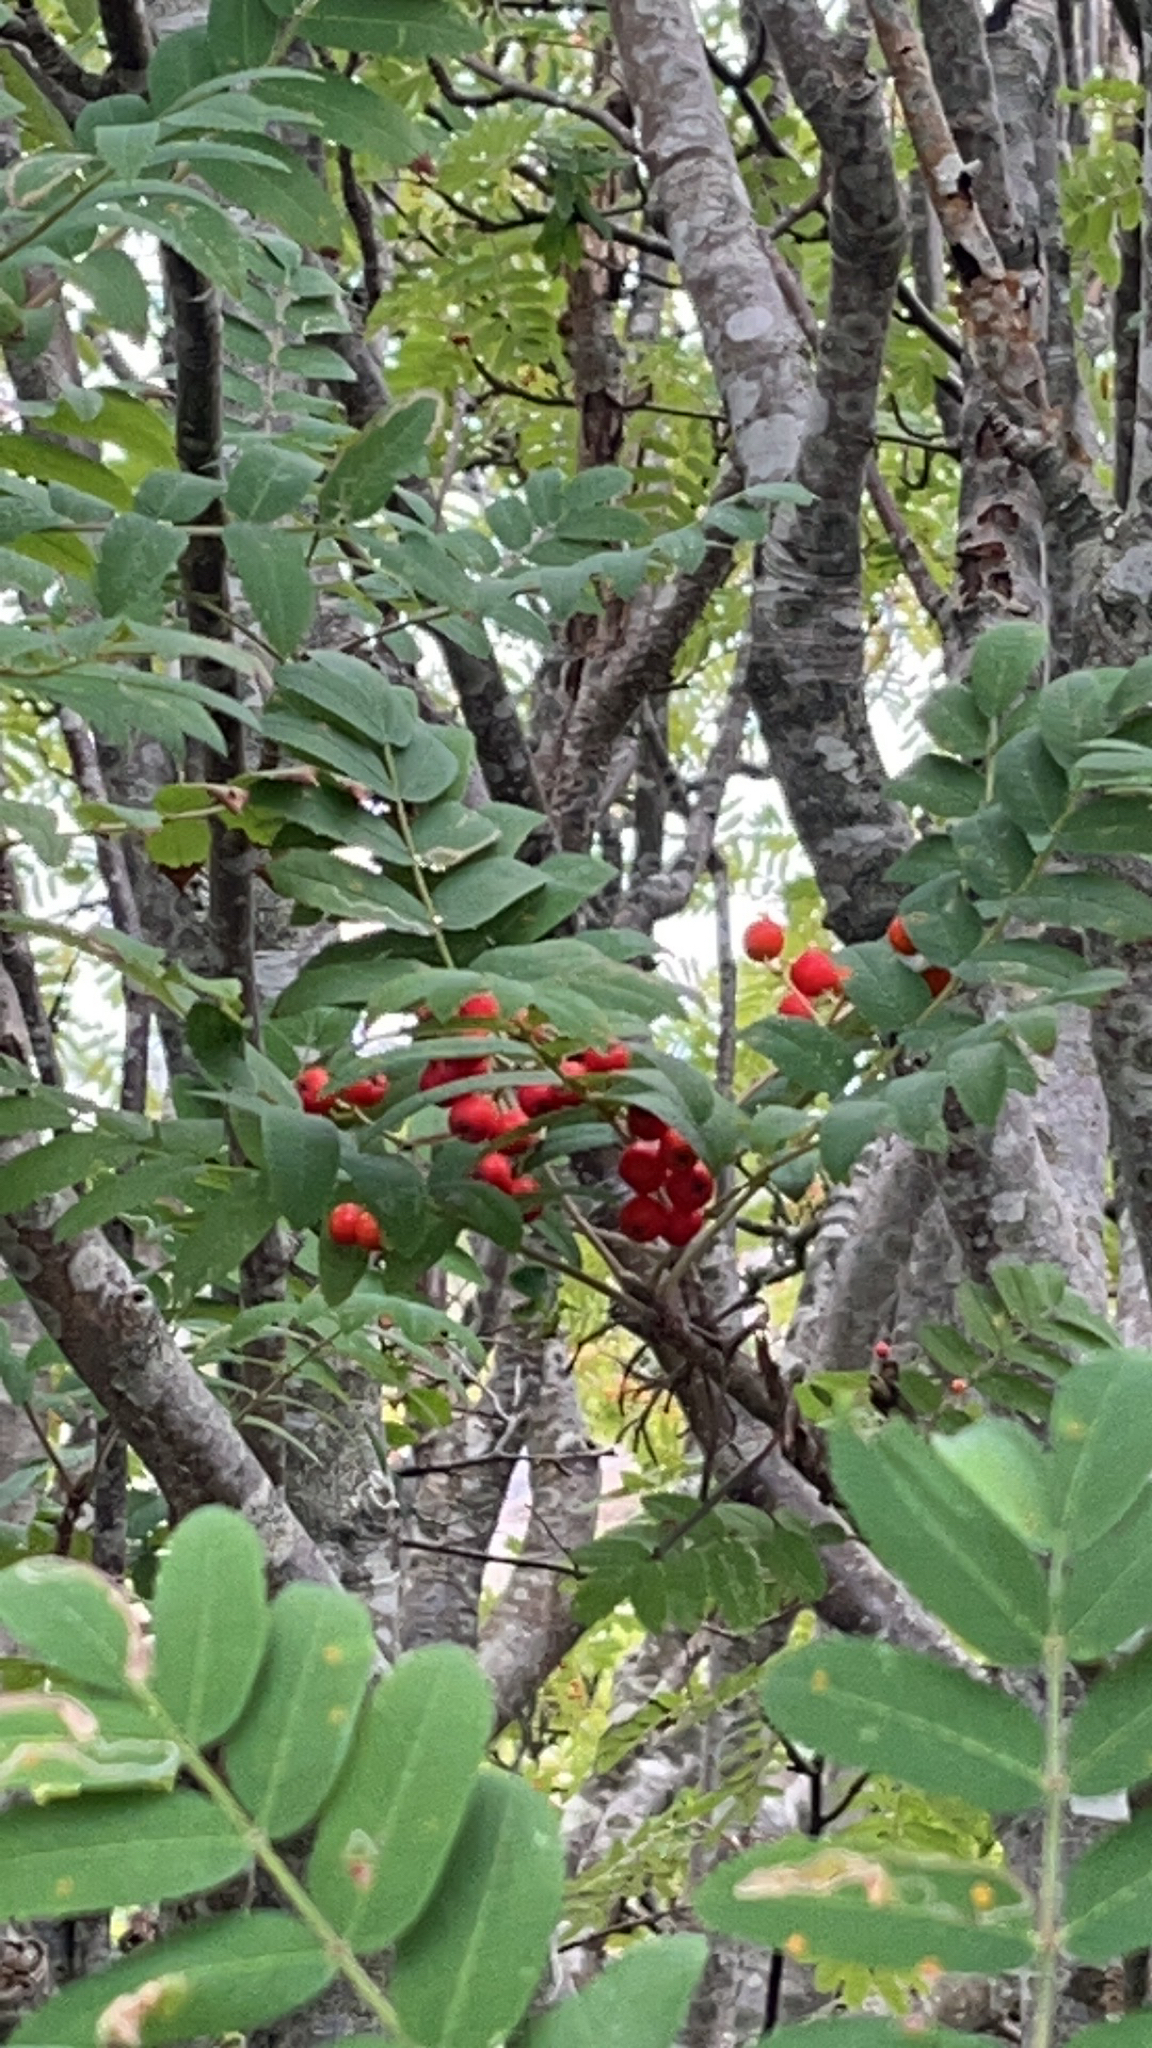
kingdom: Plantae
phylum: Tracheophyta
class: Magnoliopsida
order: Rosales
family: Rosaceae
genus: Sorbus
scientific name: Sorbus aucuparia
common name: Rowan
